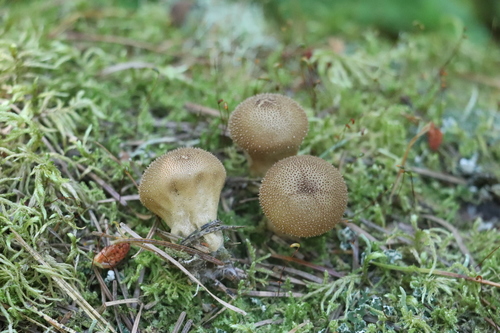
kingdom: Fungi
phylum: Basidiomycota
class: Agaricomycetes
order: Agaricales
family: Lycoperdaceae
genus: Lycoperdon
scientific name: Lycoperdon perlatum
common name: Common puffball
